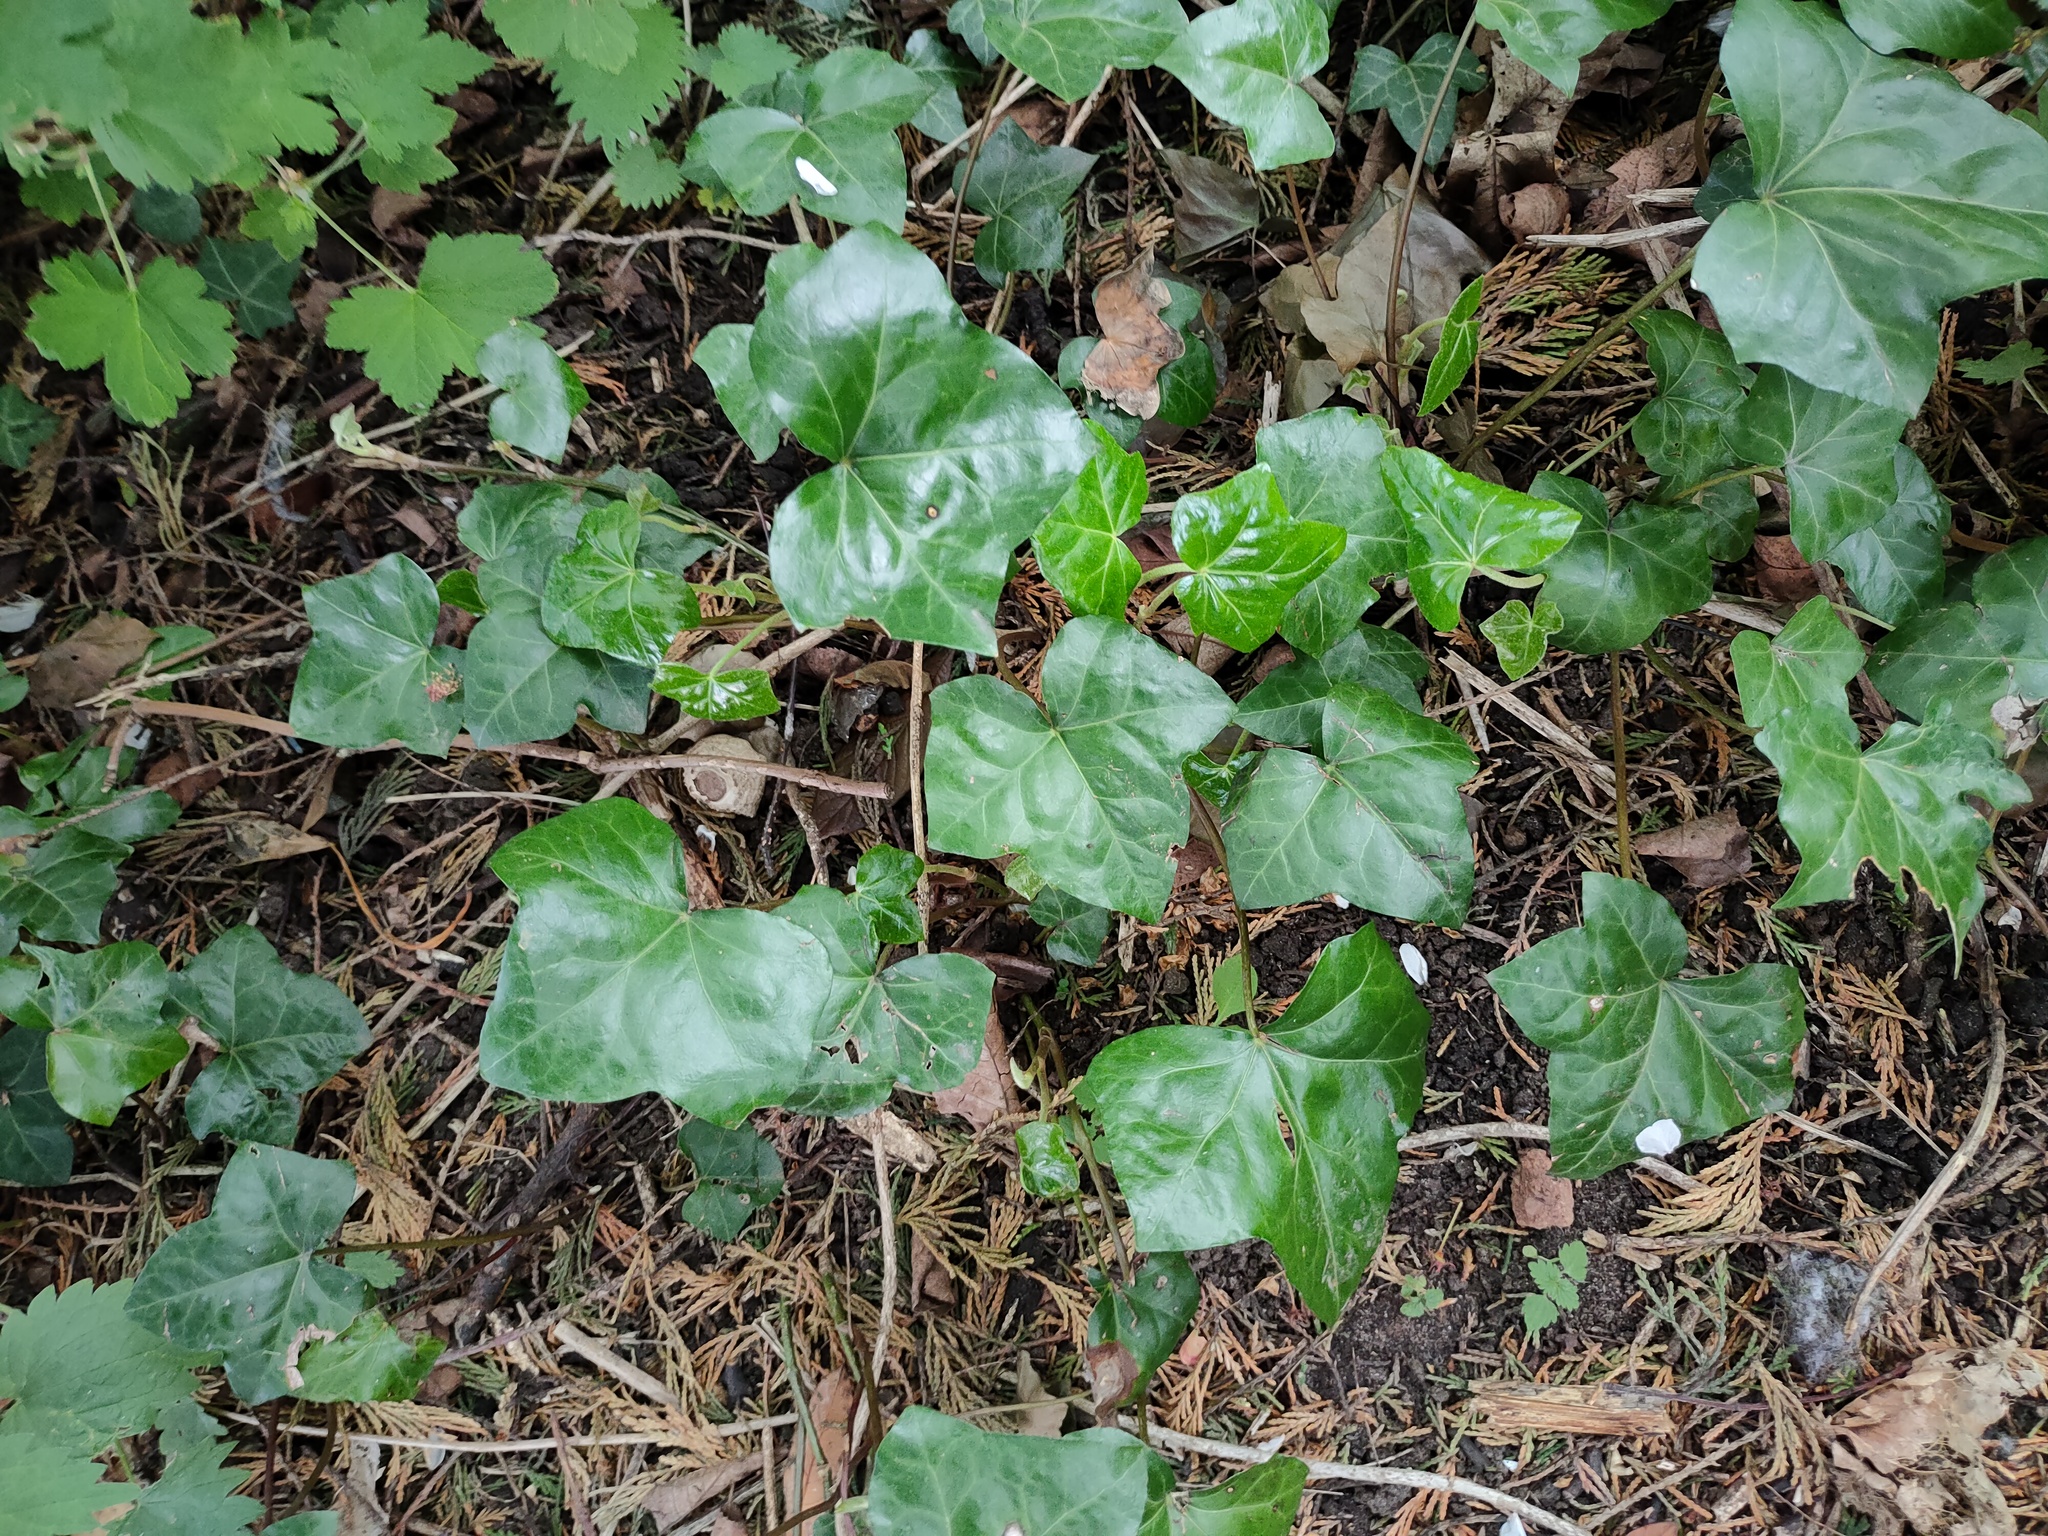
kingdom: Plantae
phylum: Tracheophyta
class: Magnoliopsida
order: Apiales
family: Araliaceae
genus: Hedera
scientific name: Hedera helix
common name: Ivy
